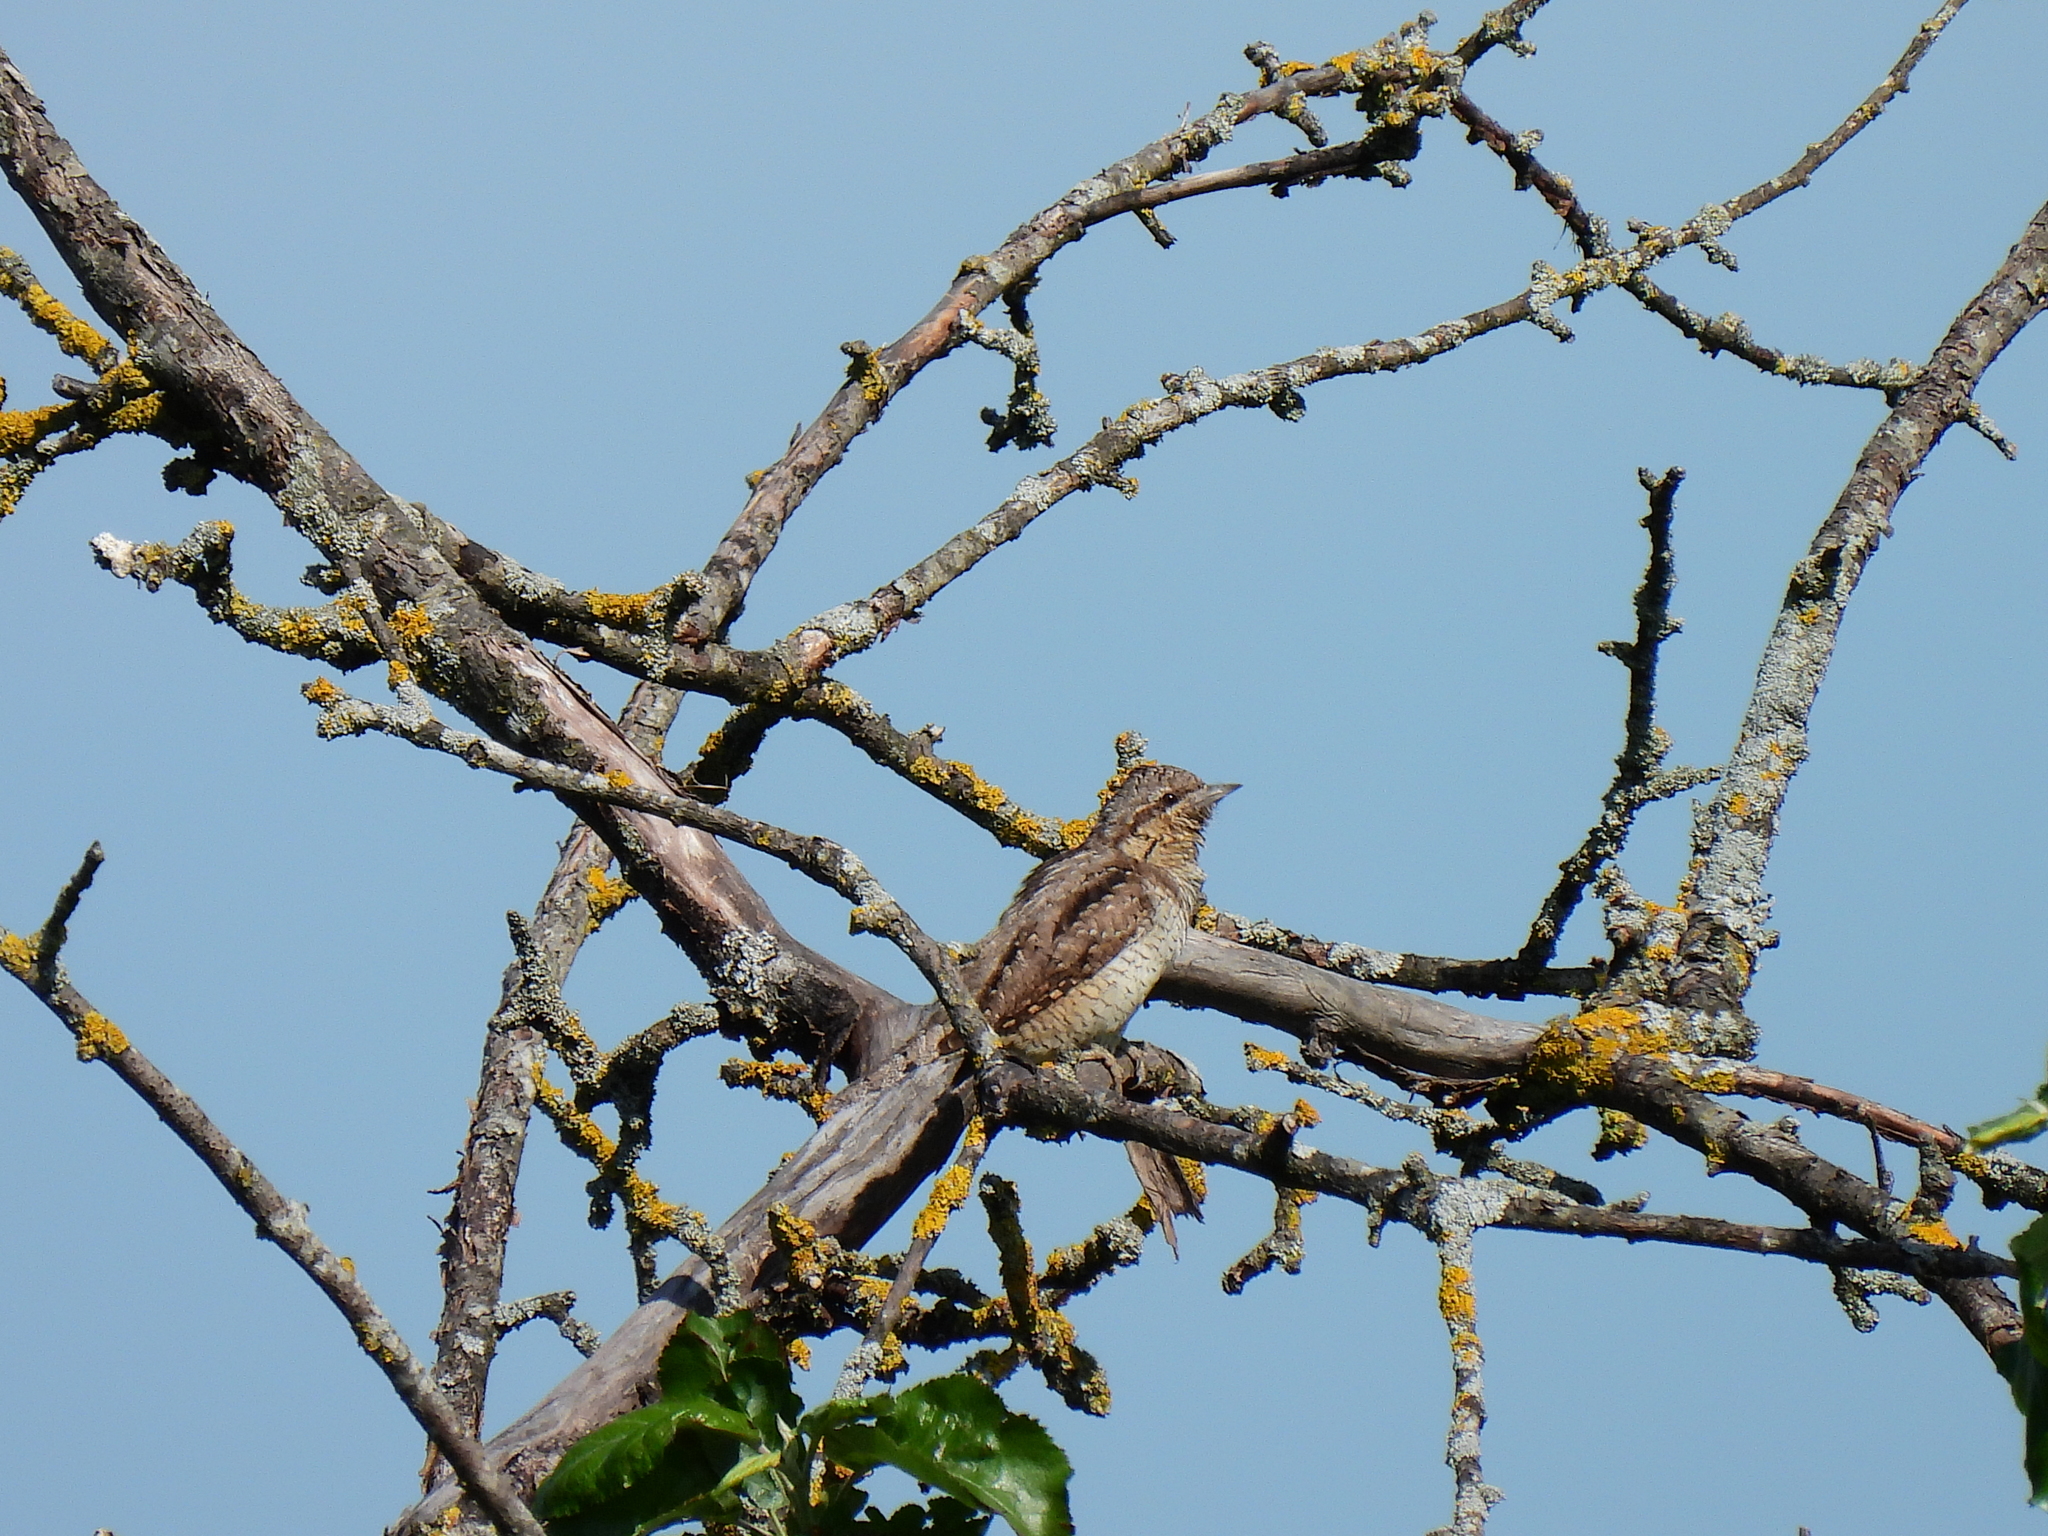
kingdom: Animalia
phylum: Chordata
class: Aves
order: Piciformes
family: Picidae
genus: Jynx
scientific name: Jynx torquilla
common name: Eurasian wryneck
